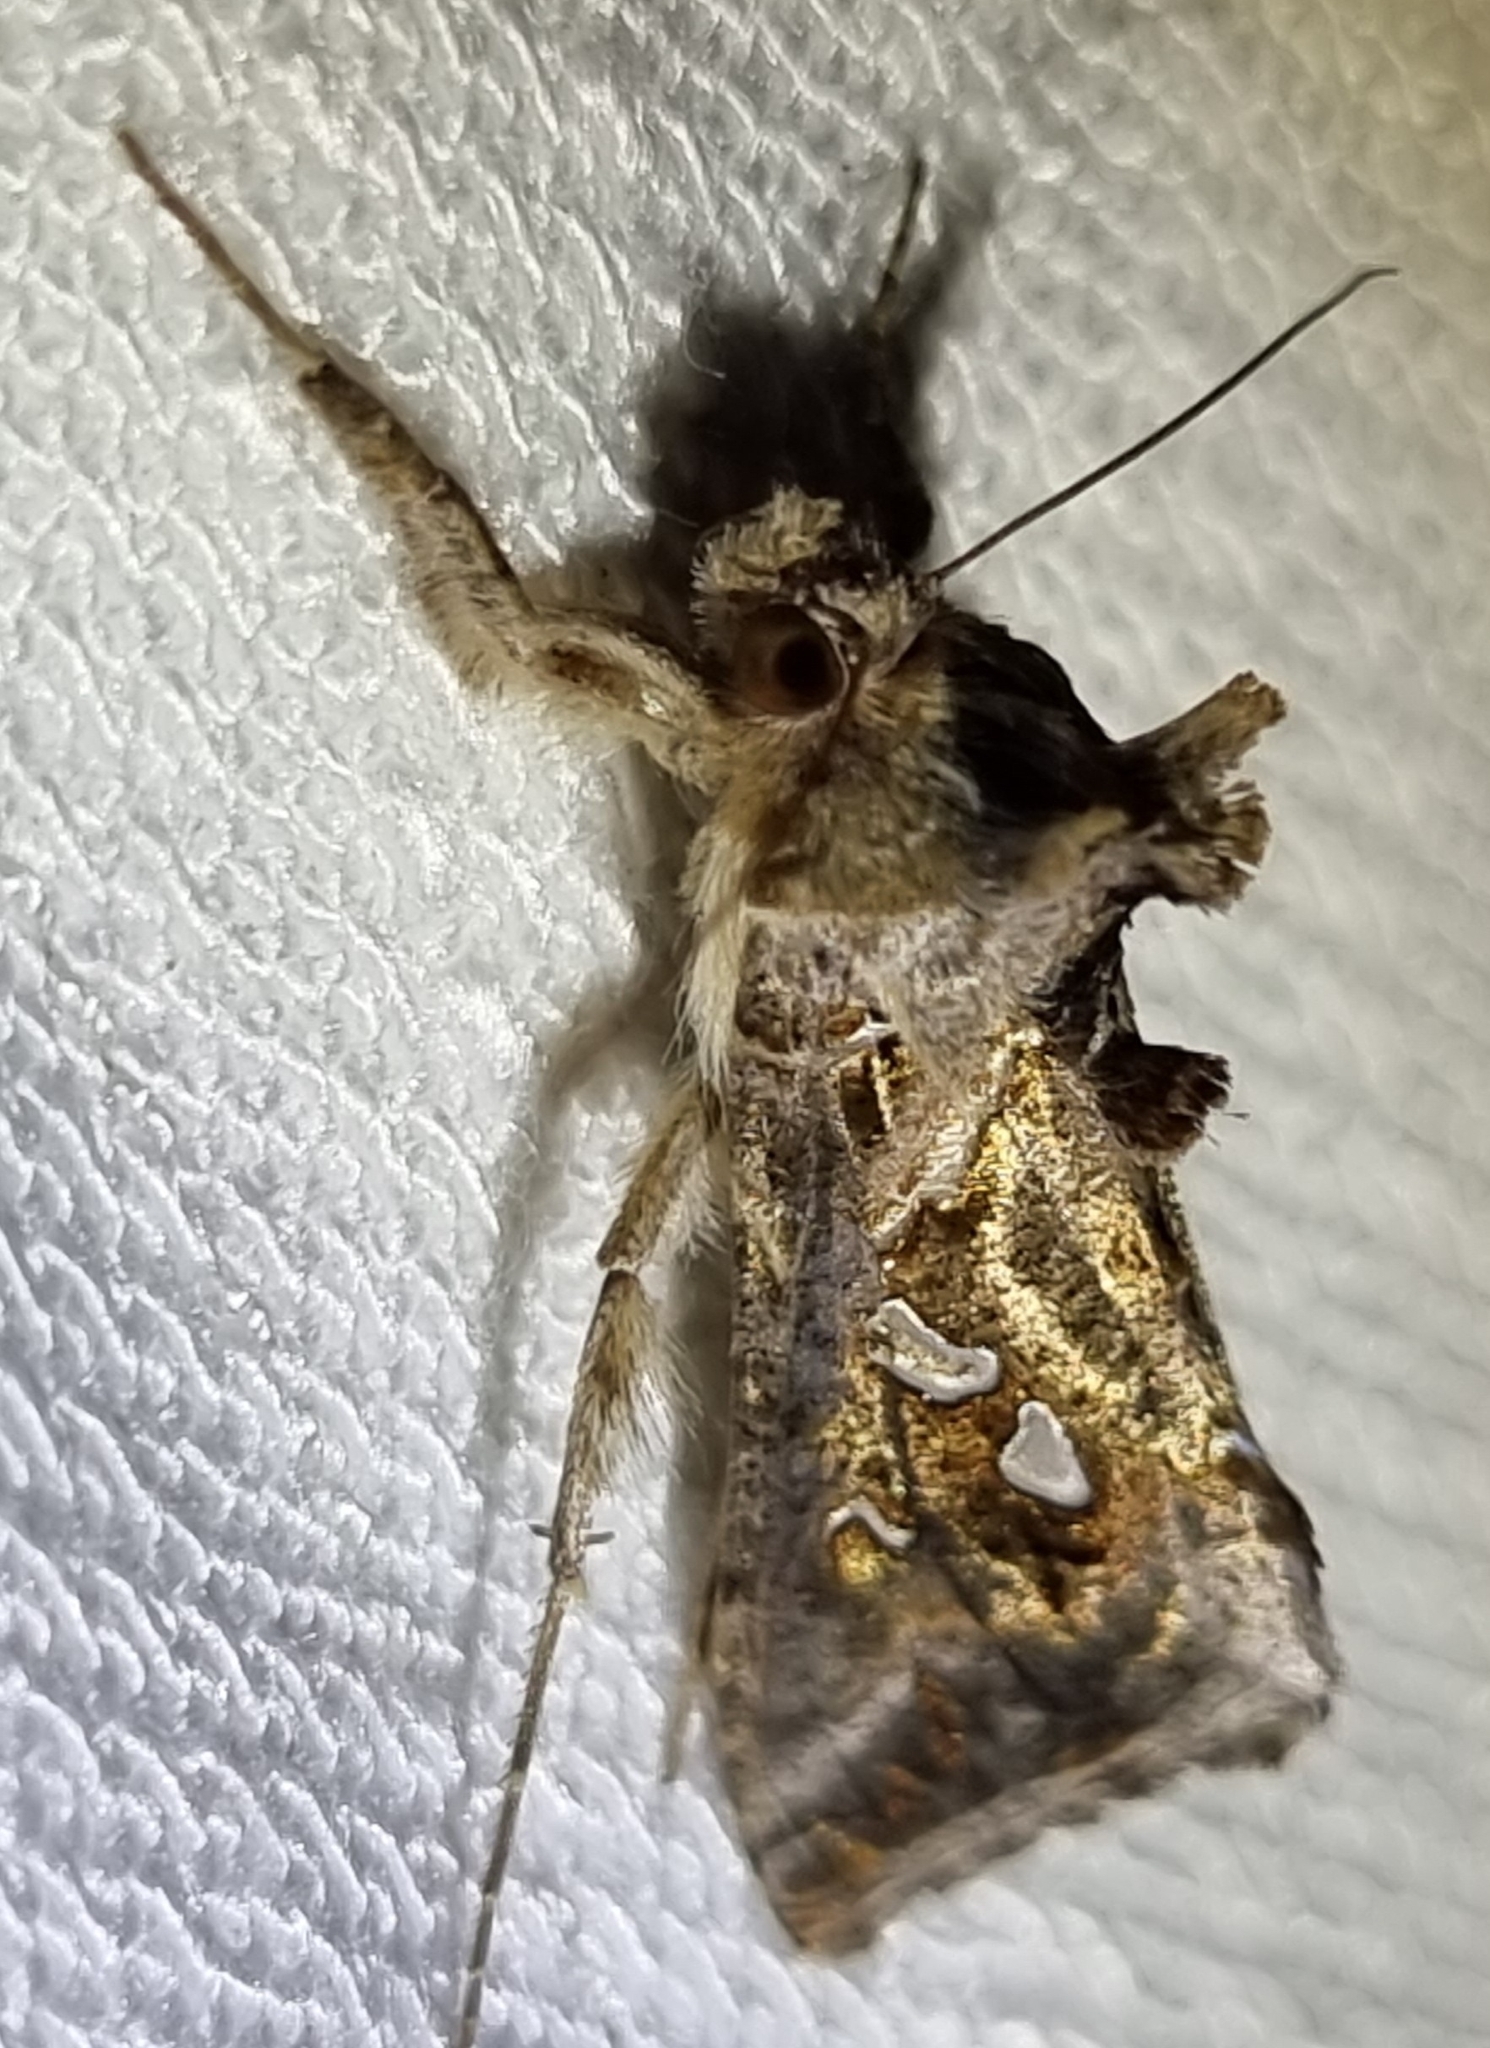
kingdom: Animalia
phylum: Arthropoda
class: Insecta
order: Lepidoptera
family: Noctuidae
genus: Chrysodeixis
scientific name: Chrysodeixis argentifera
